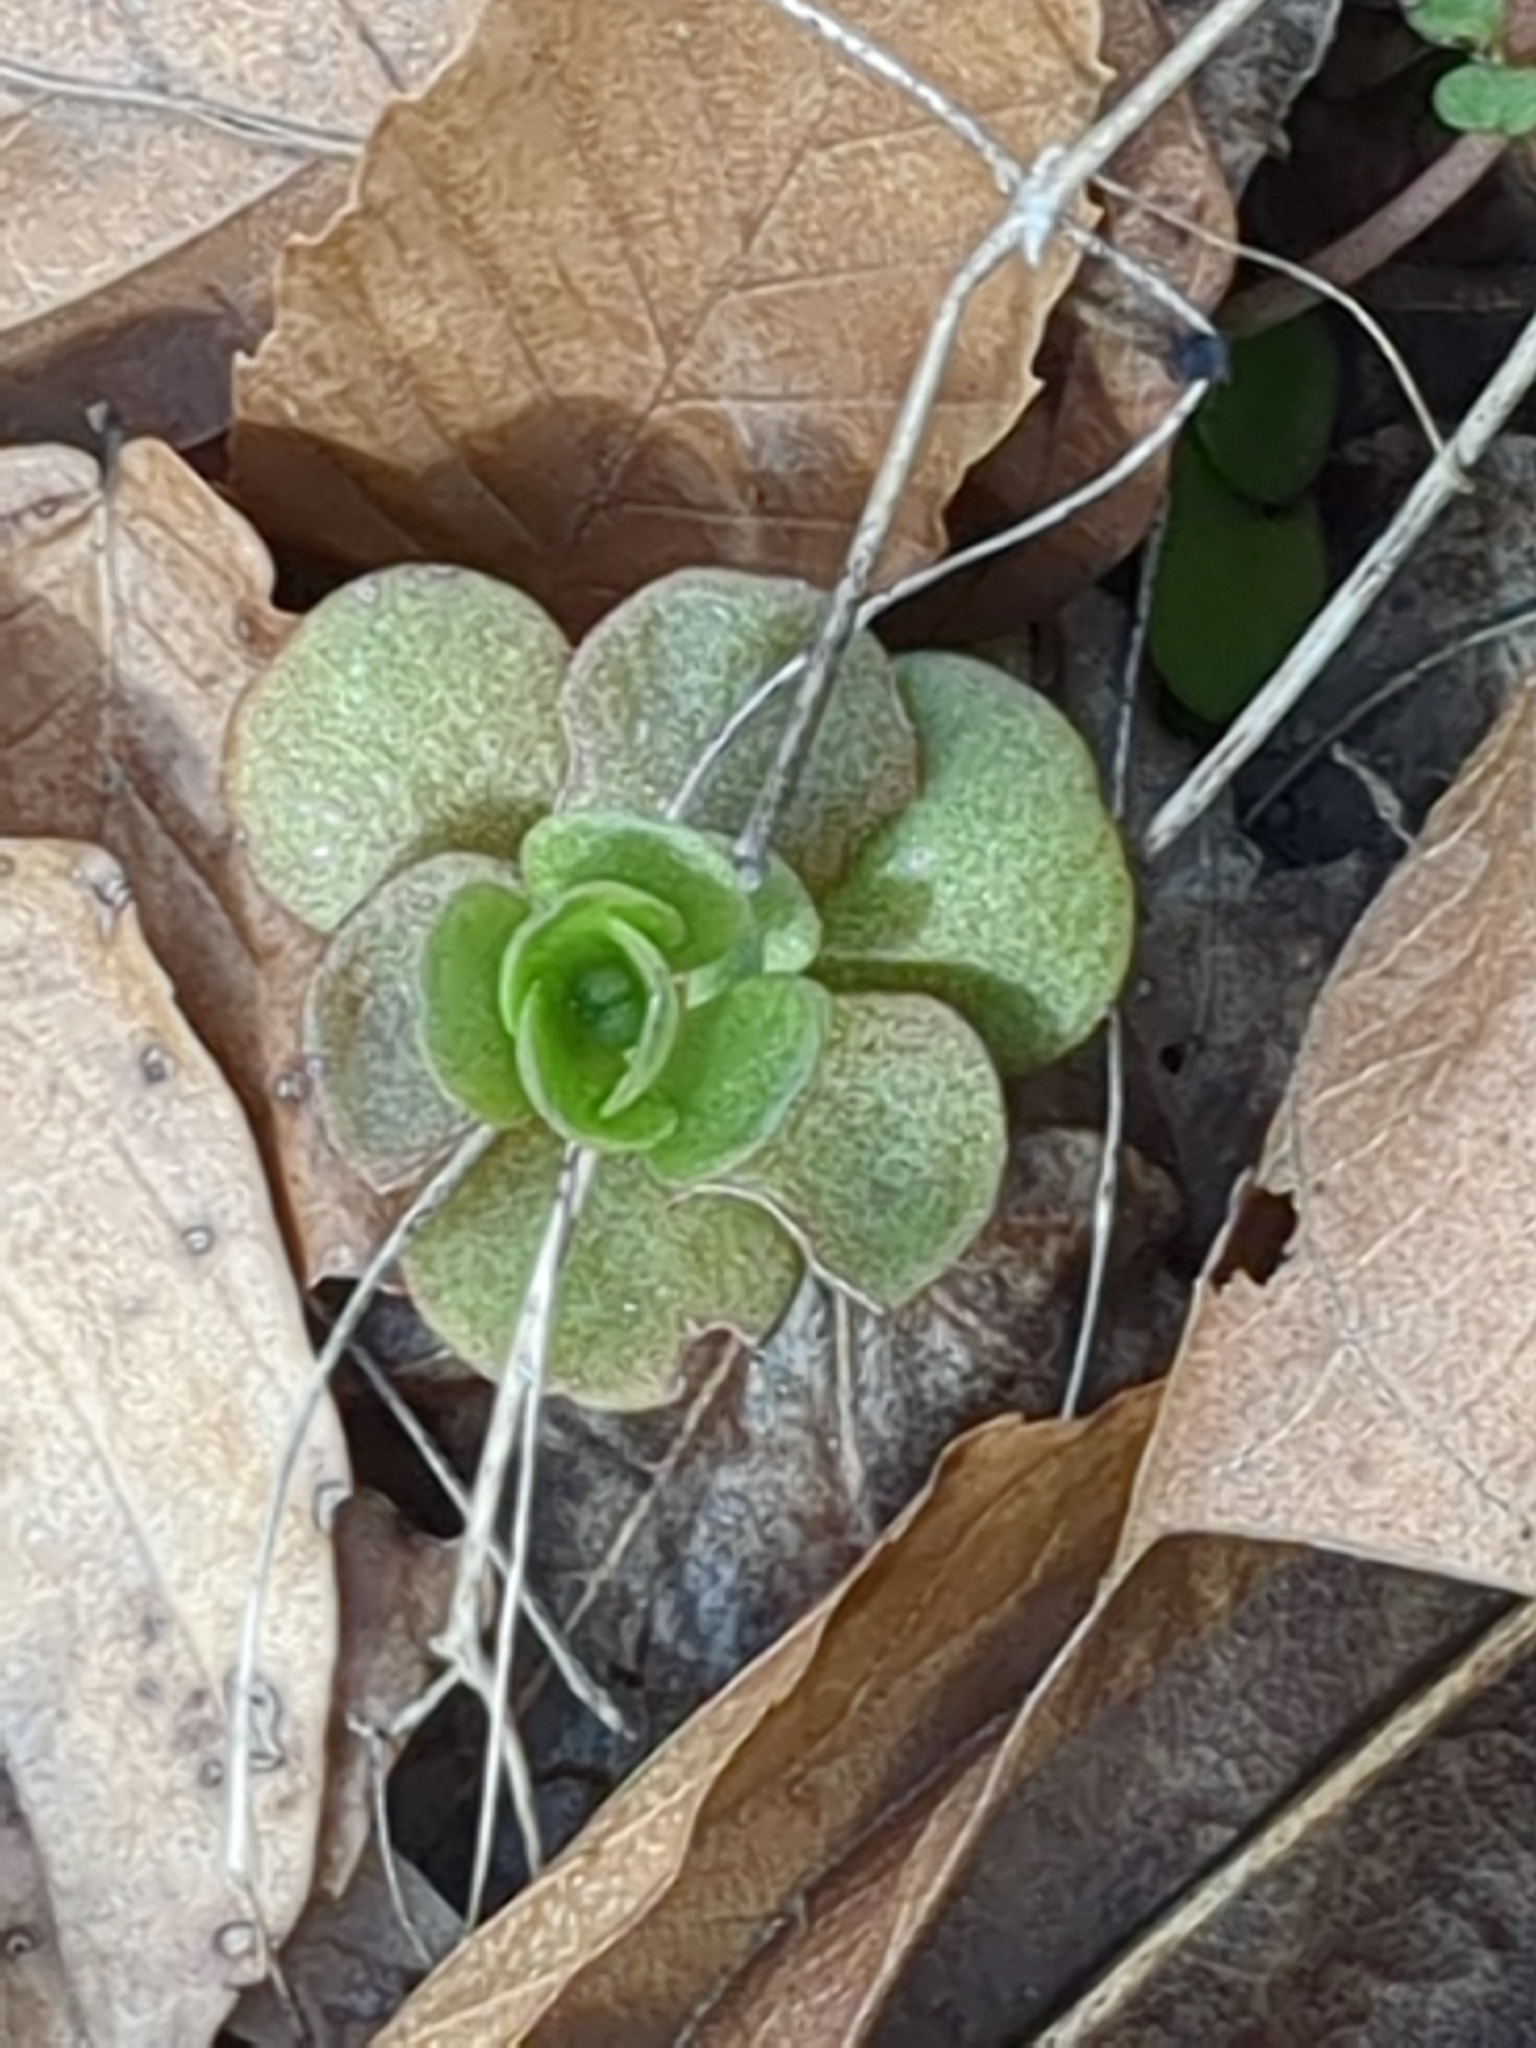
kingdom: Plantae
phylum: Tracheophyta
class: Magnoliopsida
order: Saxifragales
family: Crassulaceae
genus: Sedum
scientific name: Sedum ternatum
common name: Wild stonecrop
